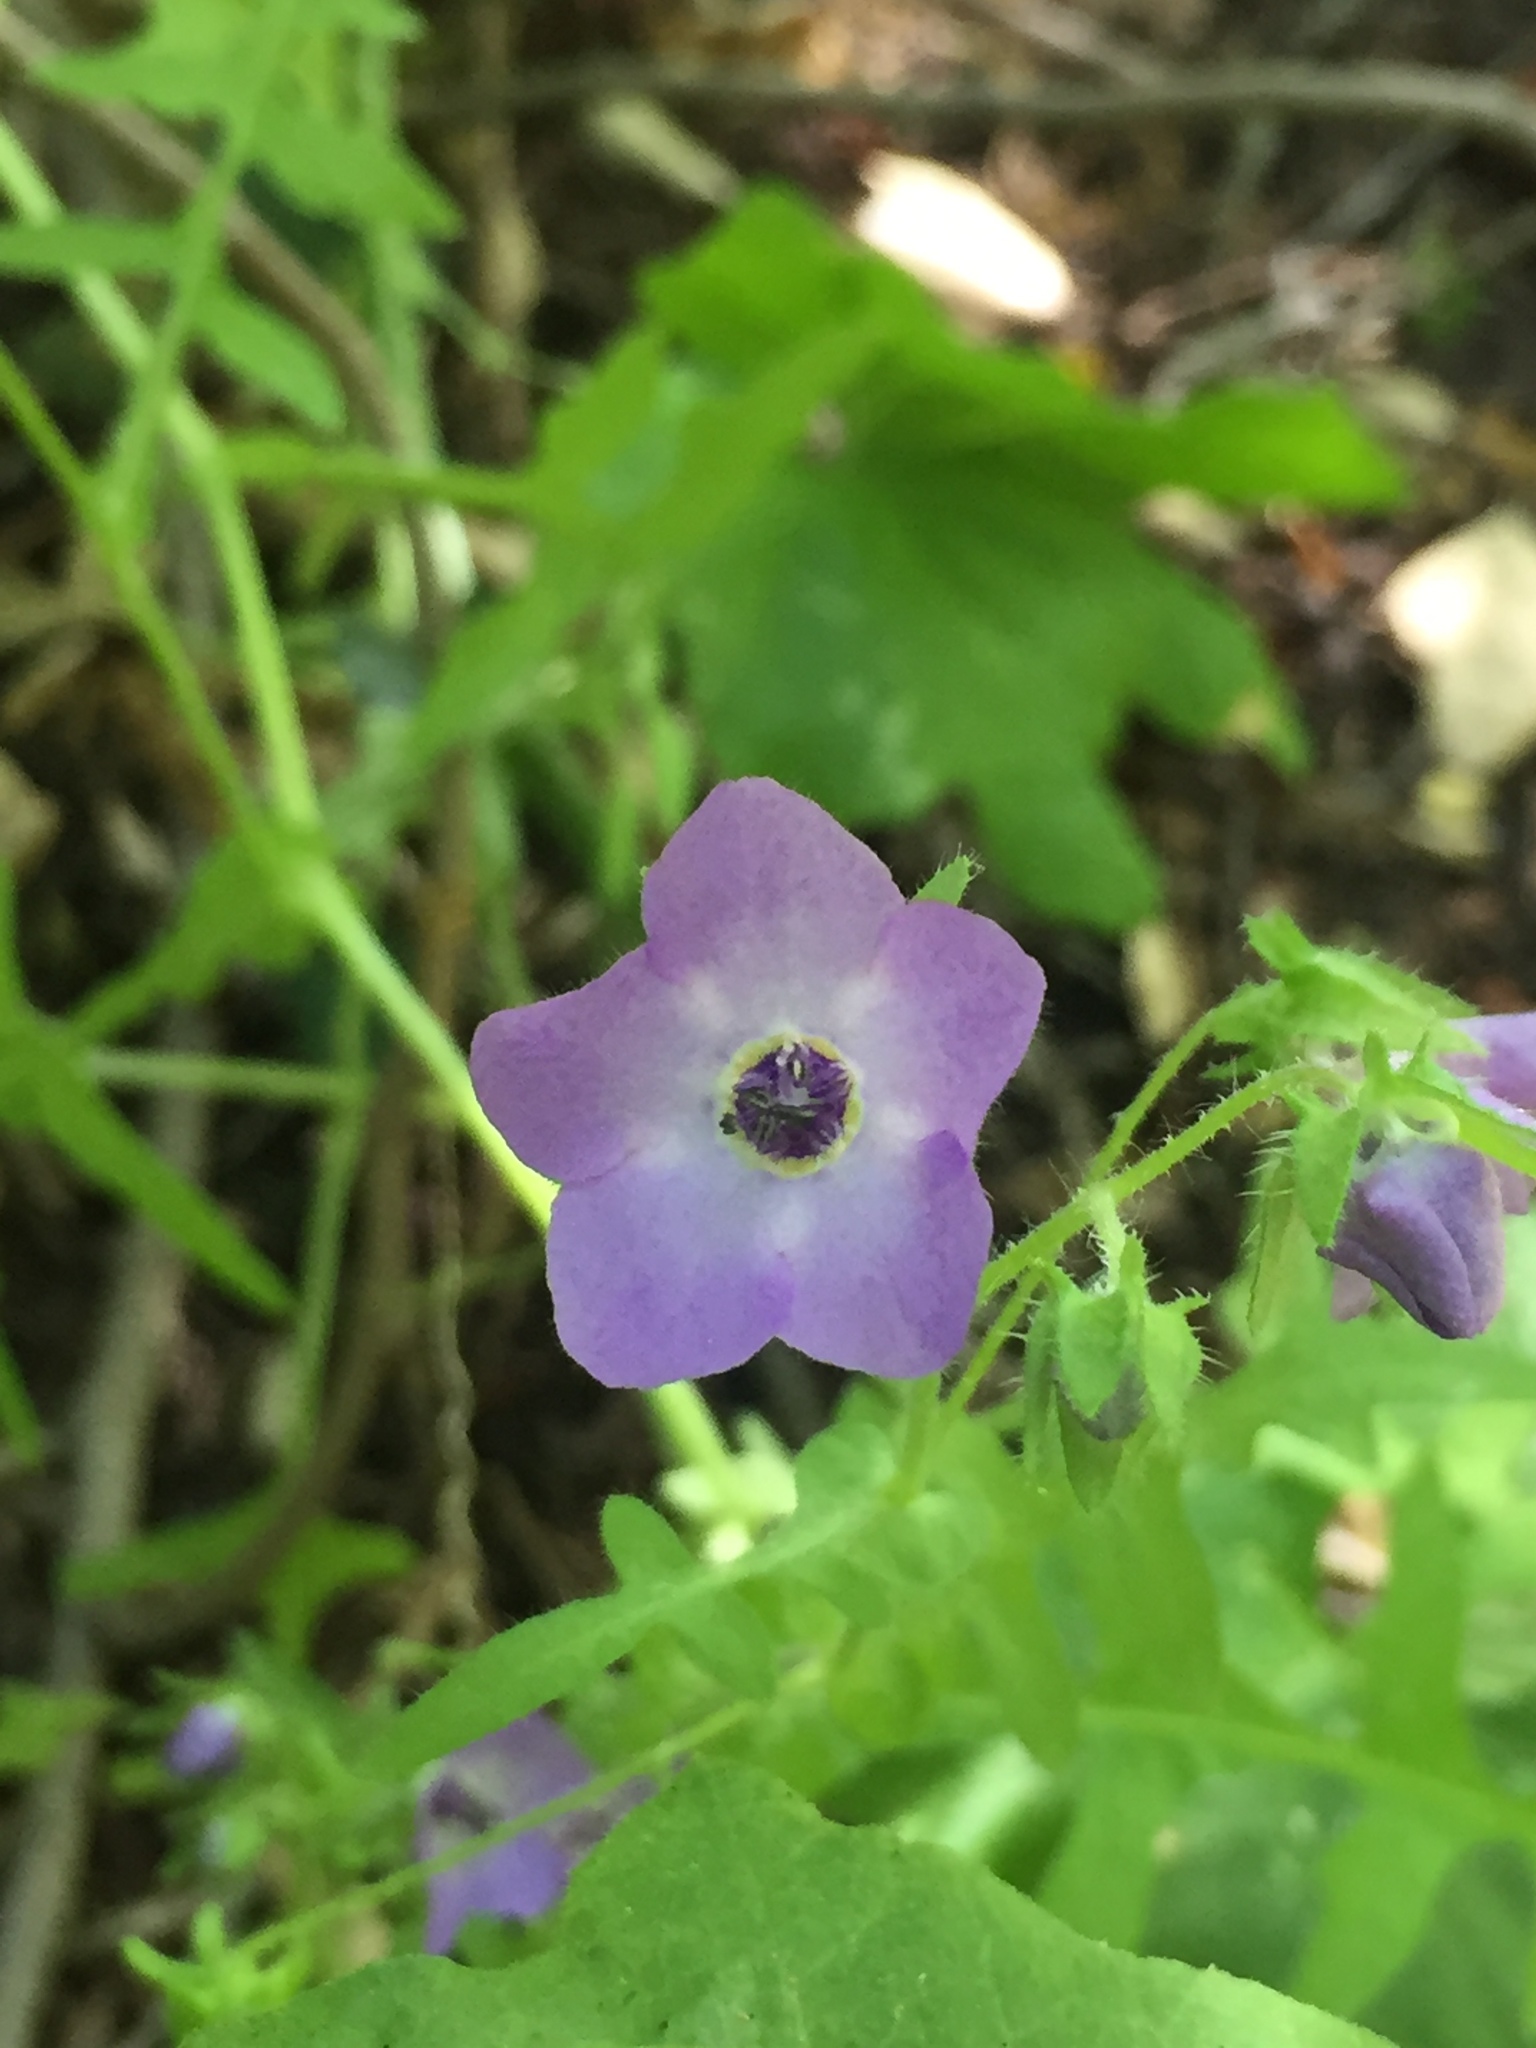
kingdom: Plantae
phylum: Tracheophyta
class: Magnoliopsida
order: Boraginales
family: Hydrophyllaceae
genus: Pholistoma
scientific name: Pholistoma auritum
